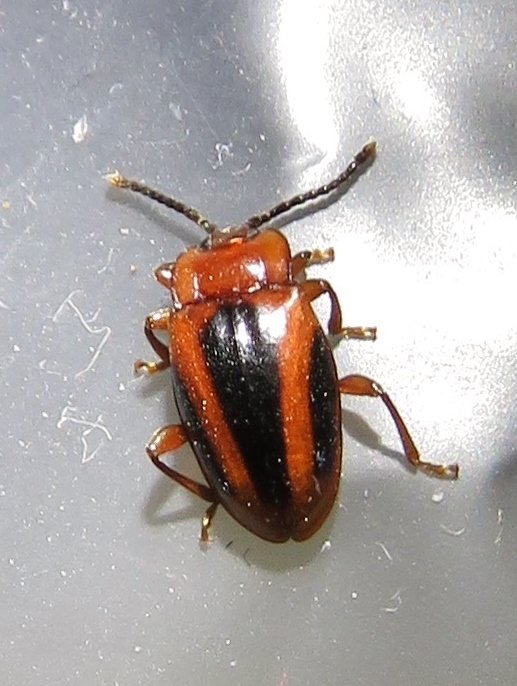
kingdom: Animalia
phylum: Arthropoda
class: Insecta
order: Coleoptera
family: Endomychidae
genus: Aphorista
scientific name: Aphorista vittata
